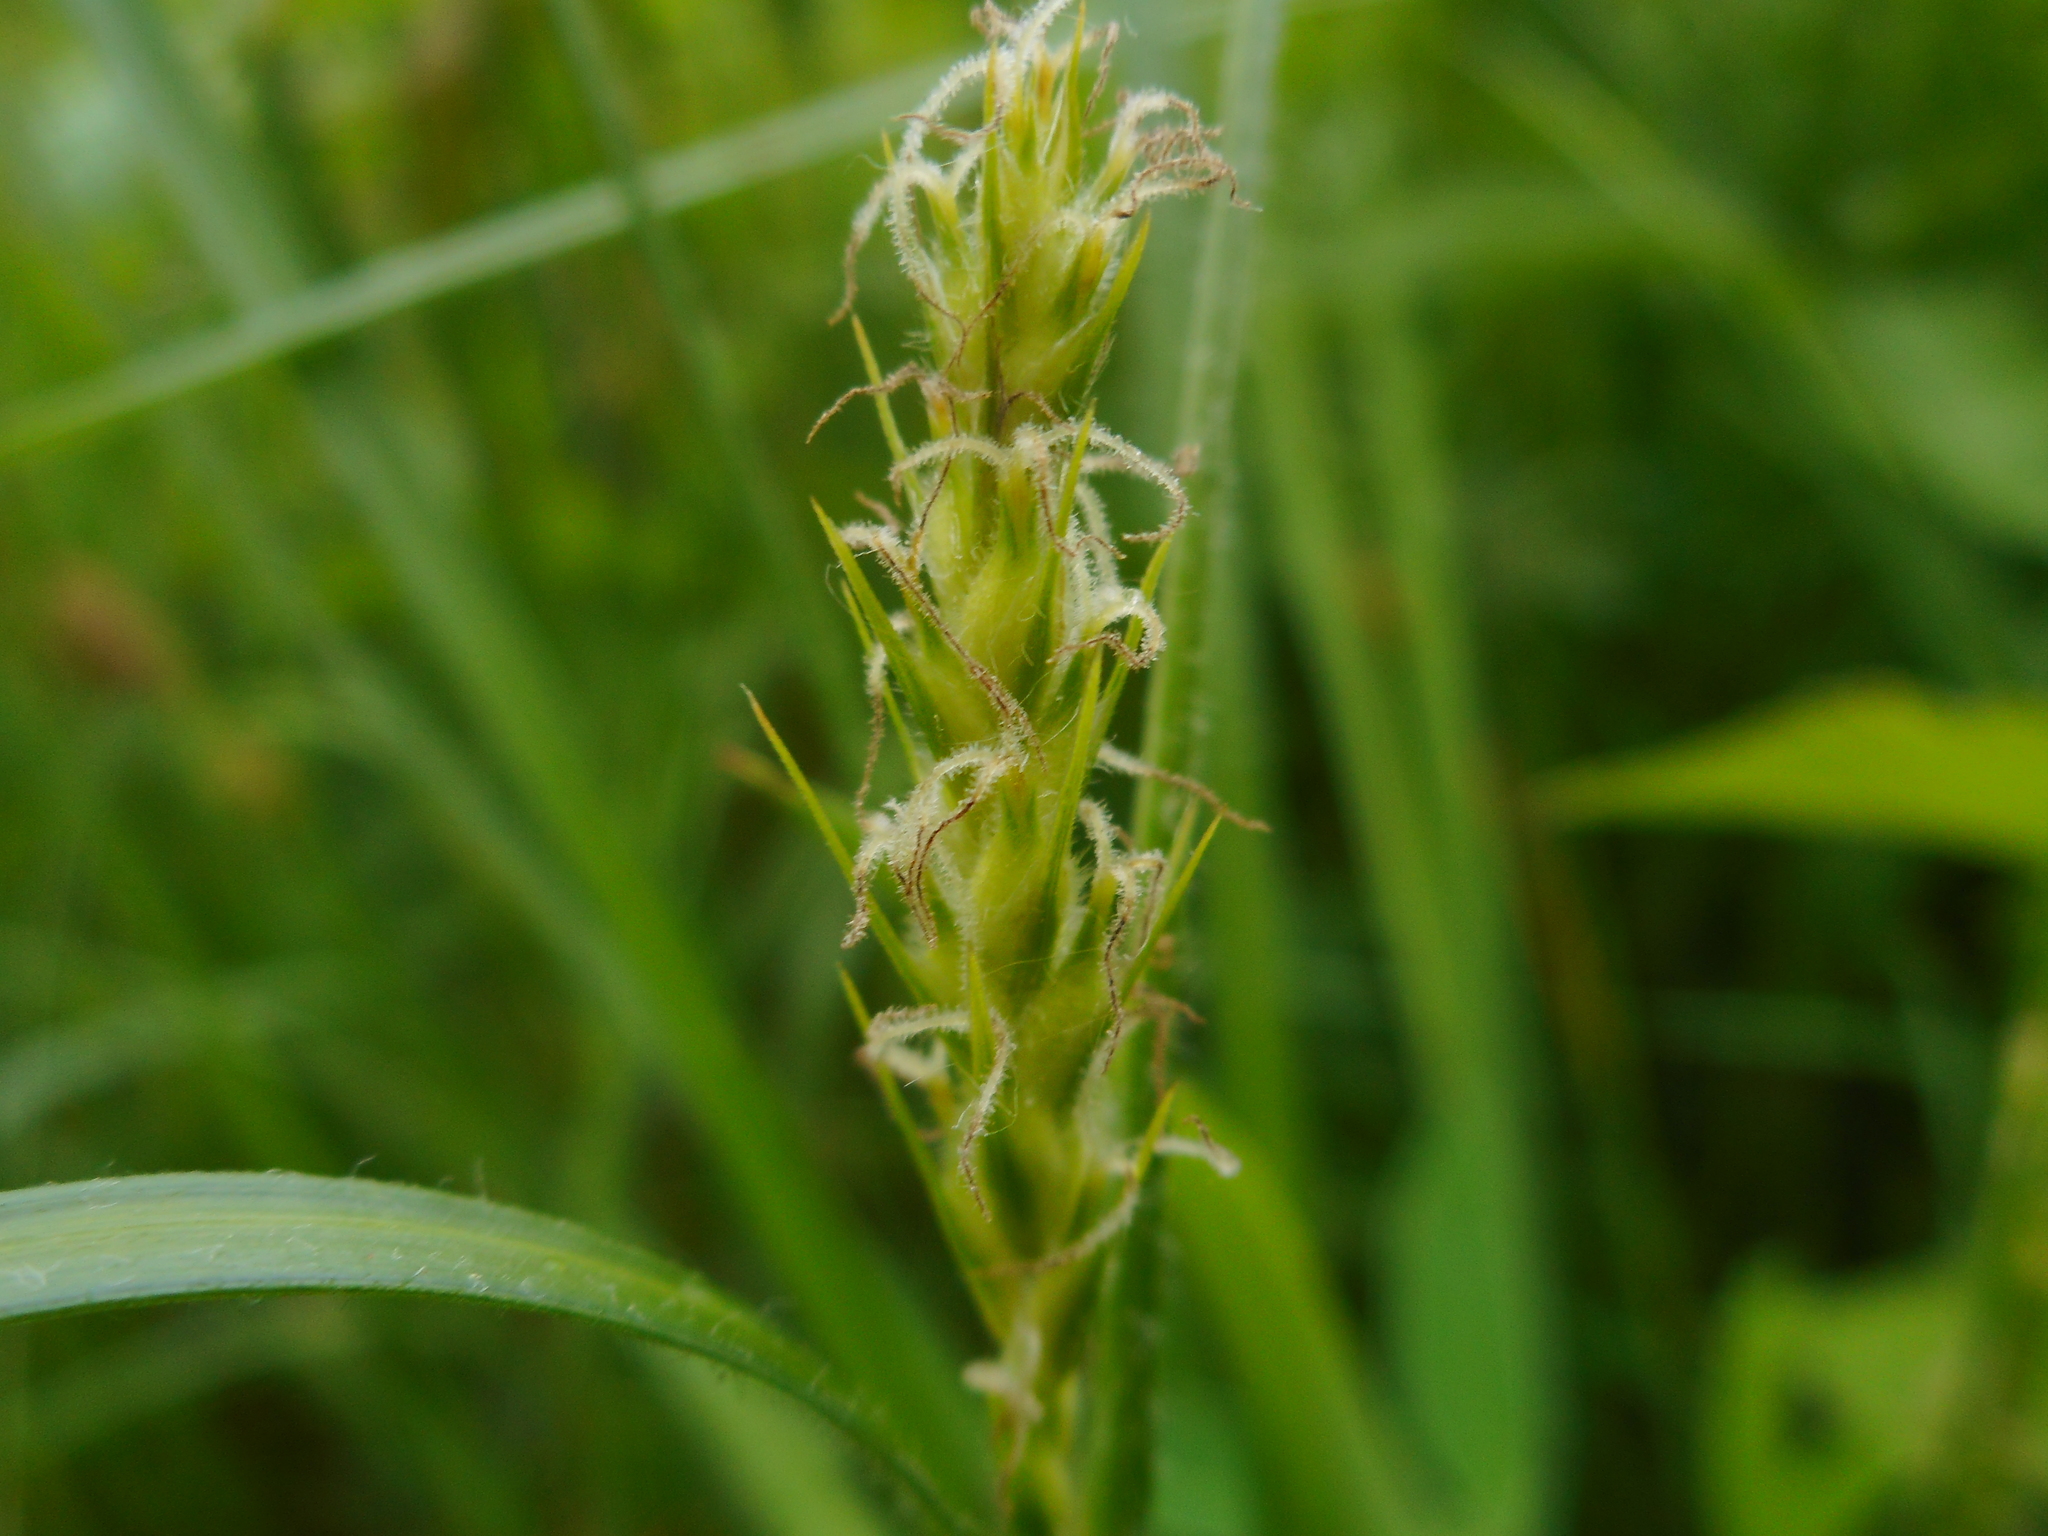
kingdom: Plantae
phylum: Tracheophyta
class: Liliopsida
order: Poales
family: Cyperaceae
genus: Carex
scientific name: Carex hirta
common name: Hairy sedge
